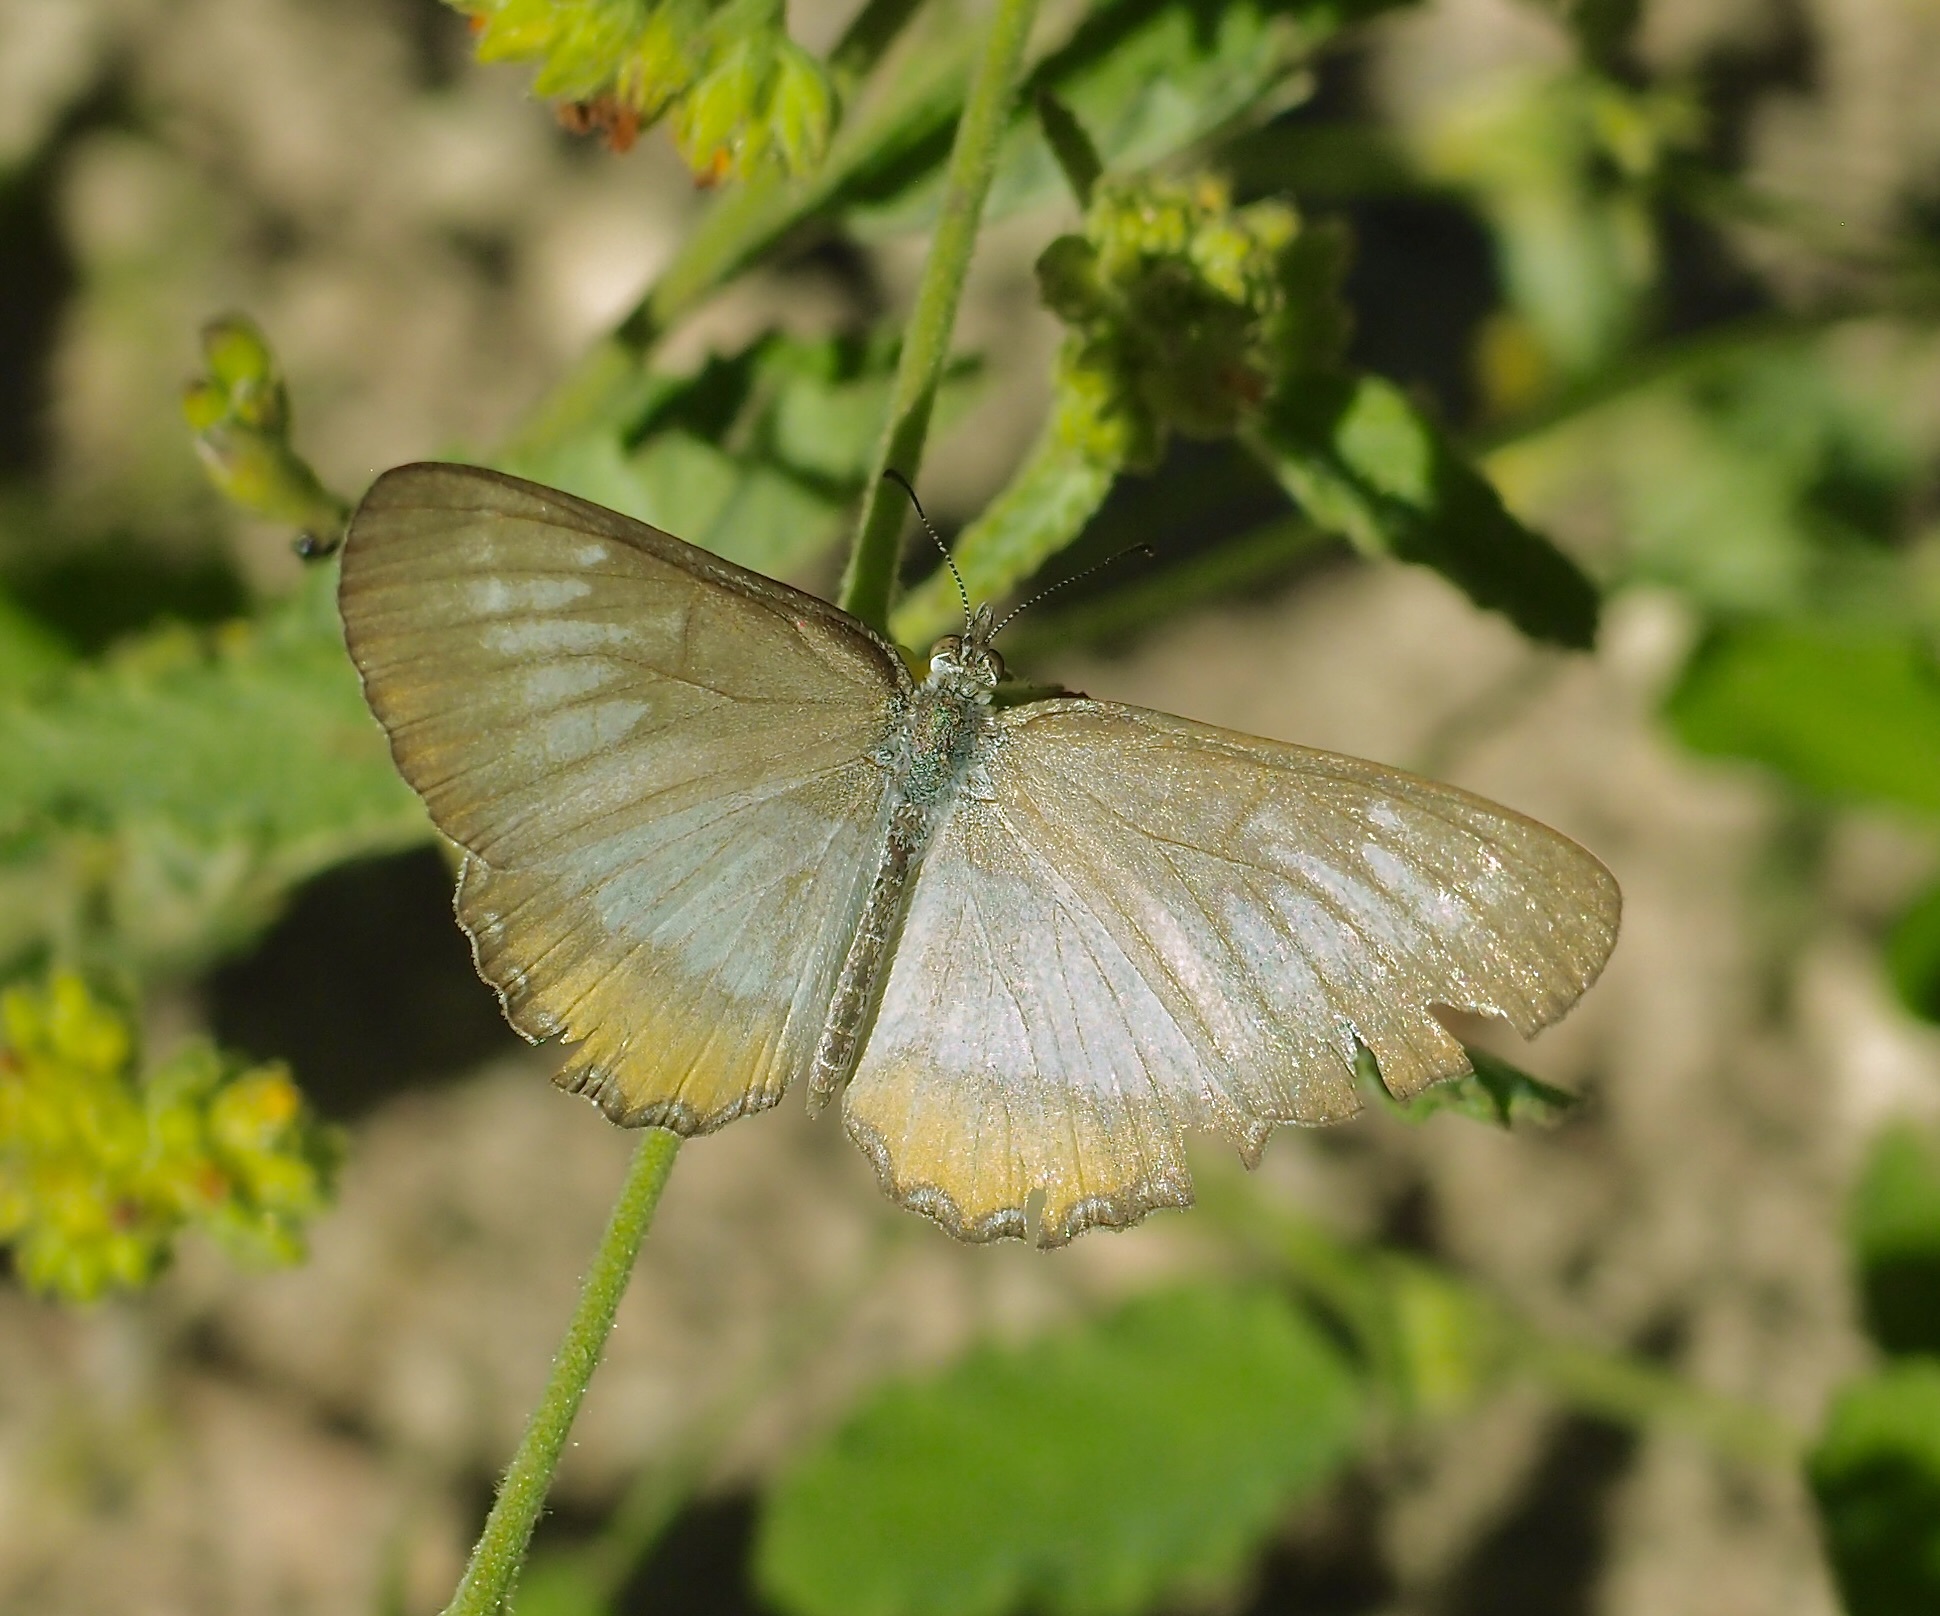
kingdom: Animalia
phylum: Arthropoda
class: Insecta
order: Lepidoptera
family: Nymphalidae
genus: Mestra
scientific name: Mestra amymone
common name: Common mestra
